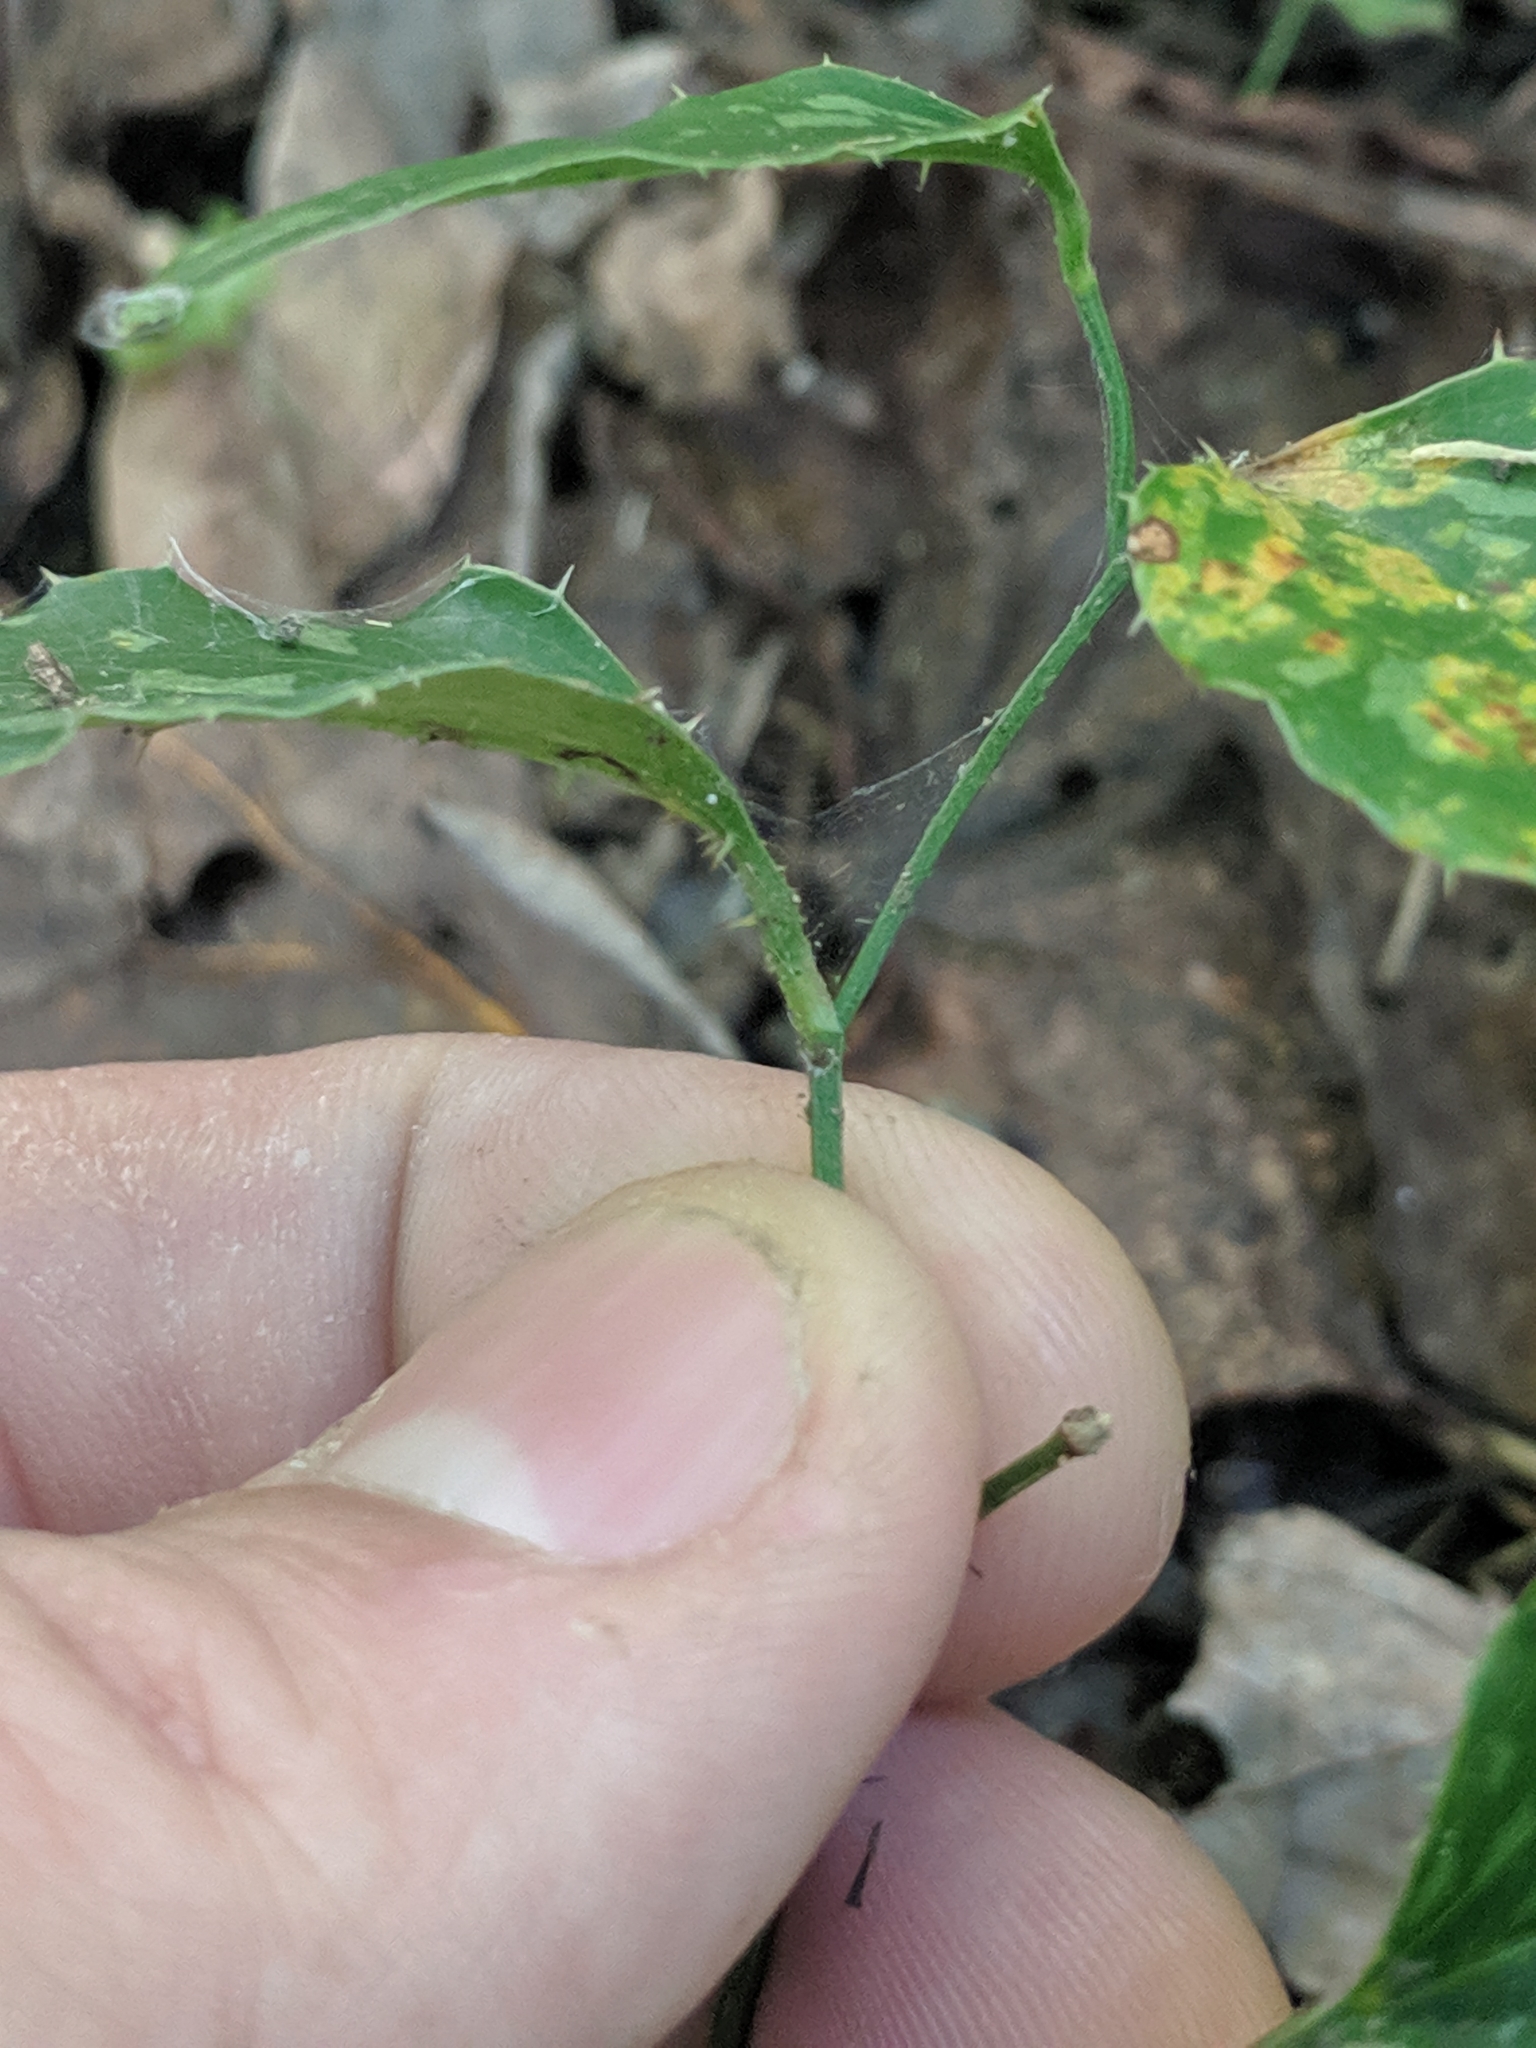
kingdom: Plantae
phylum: Tracheophyta
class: Liliopsida
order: Liliales
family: Smilacaceae
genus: Smilax
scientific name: Smilax bona-nox
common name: Catbrier
